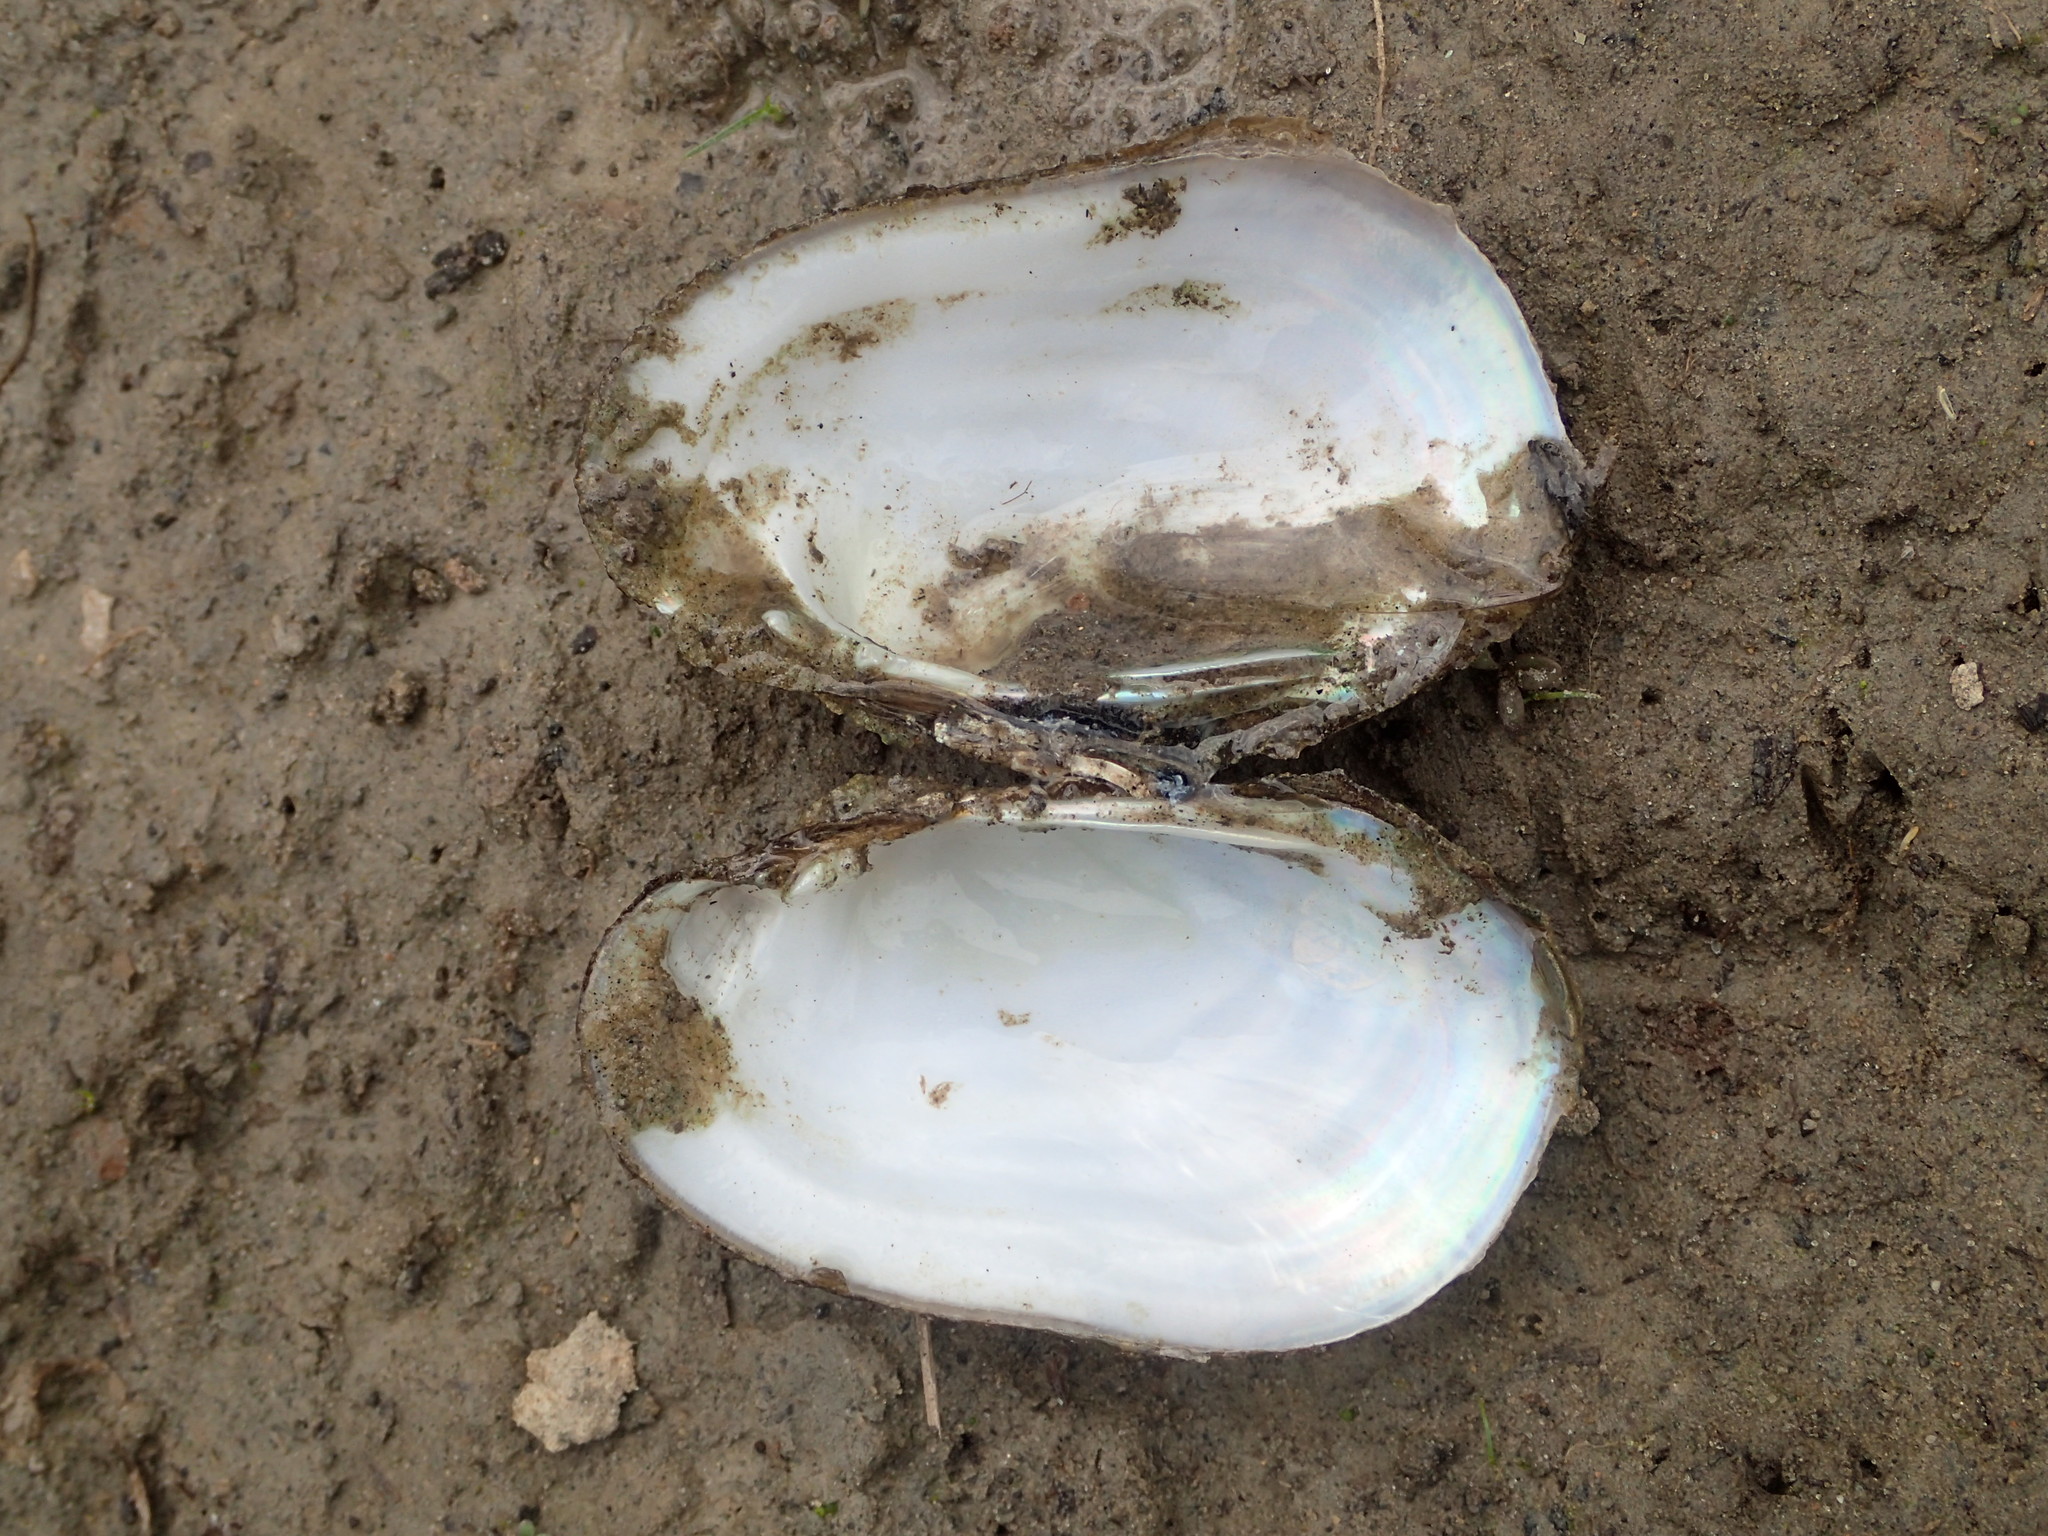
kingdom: Animalia
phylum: Mollusca
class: Bivalvia
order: Unionida
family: Unionidae
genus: Lampsilis
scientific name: Lampsilis siliquoidea
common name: Fatmucket
